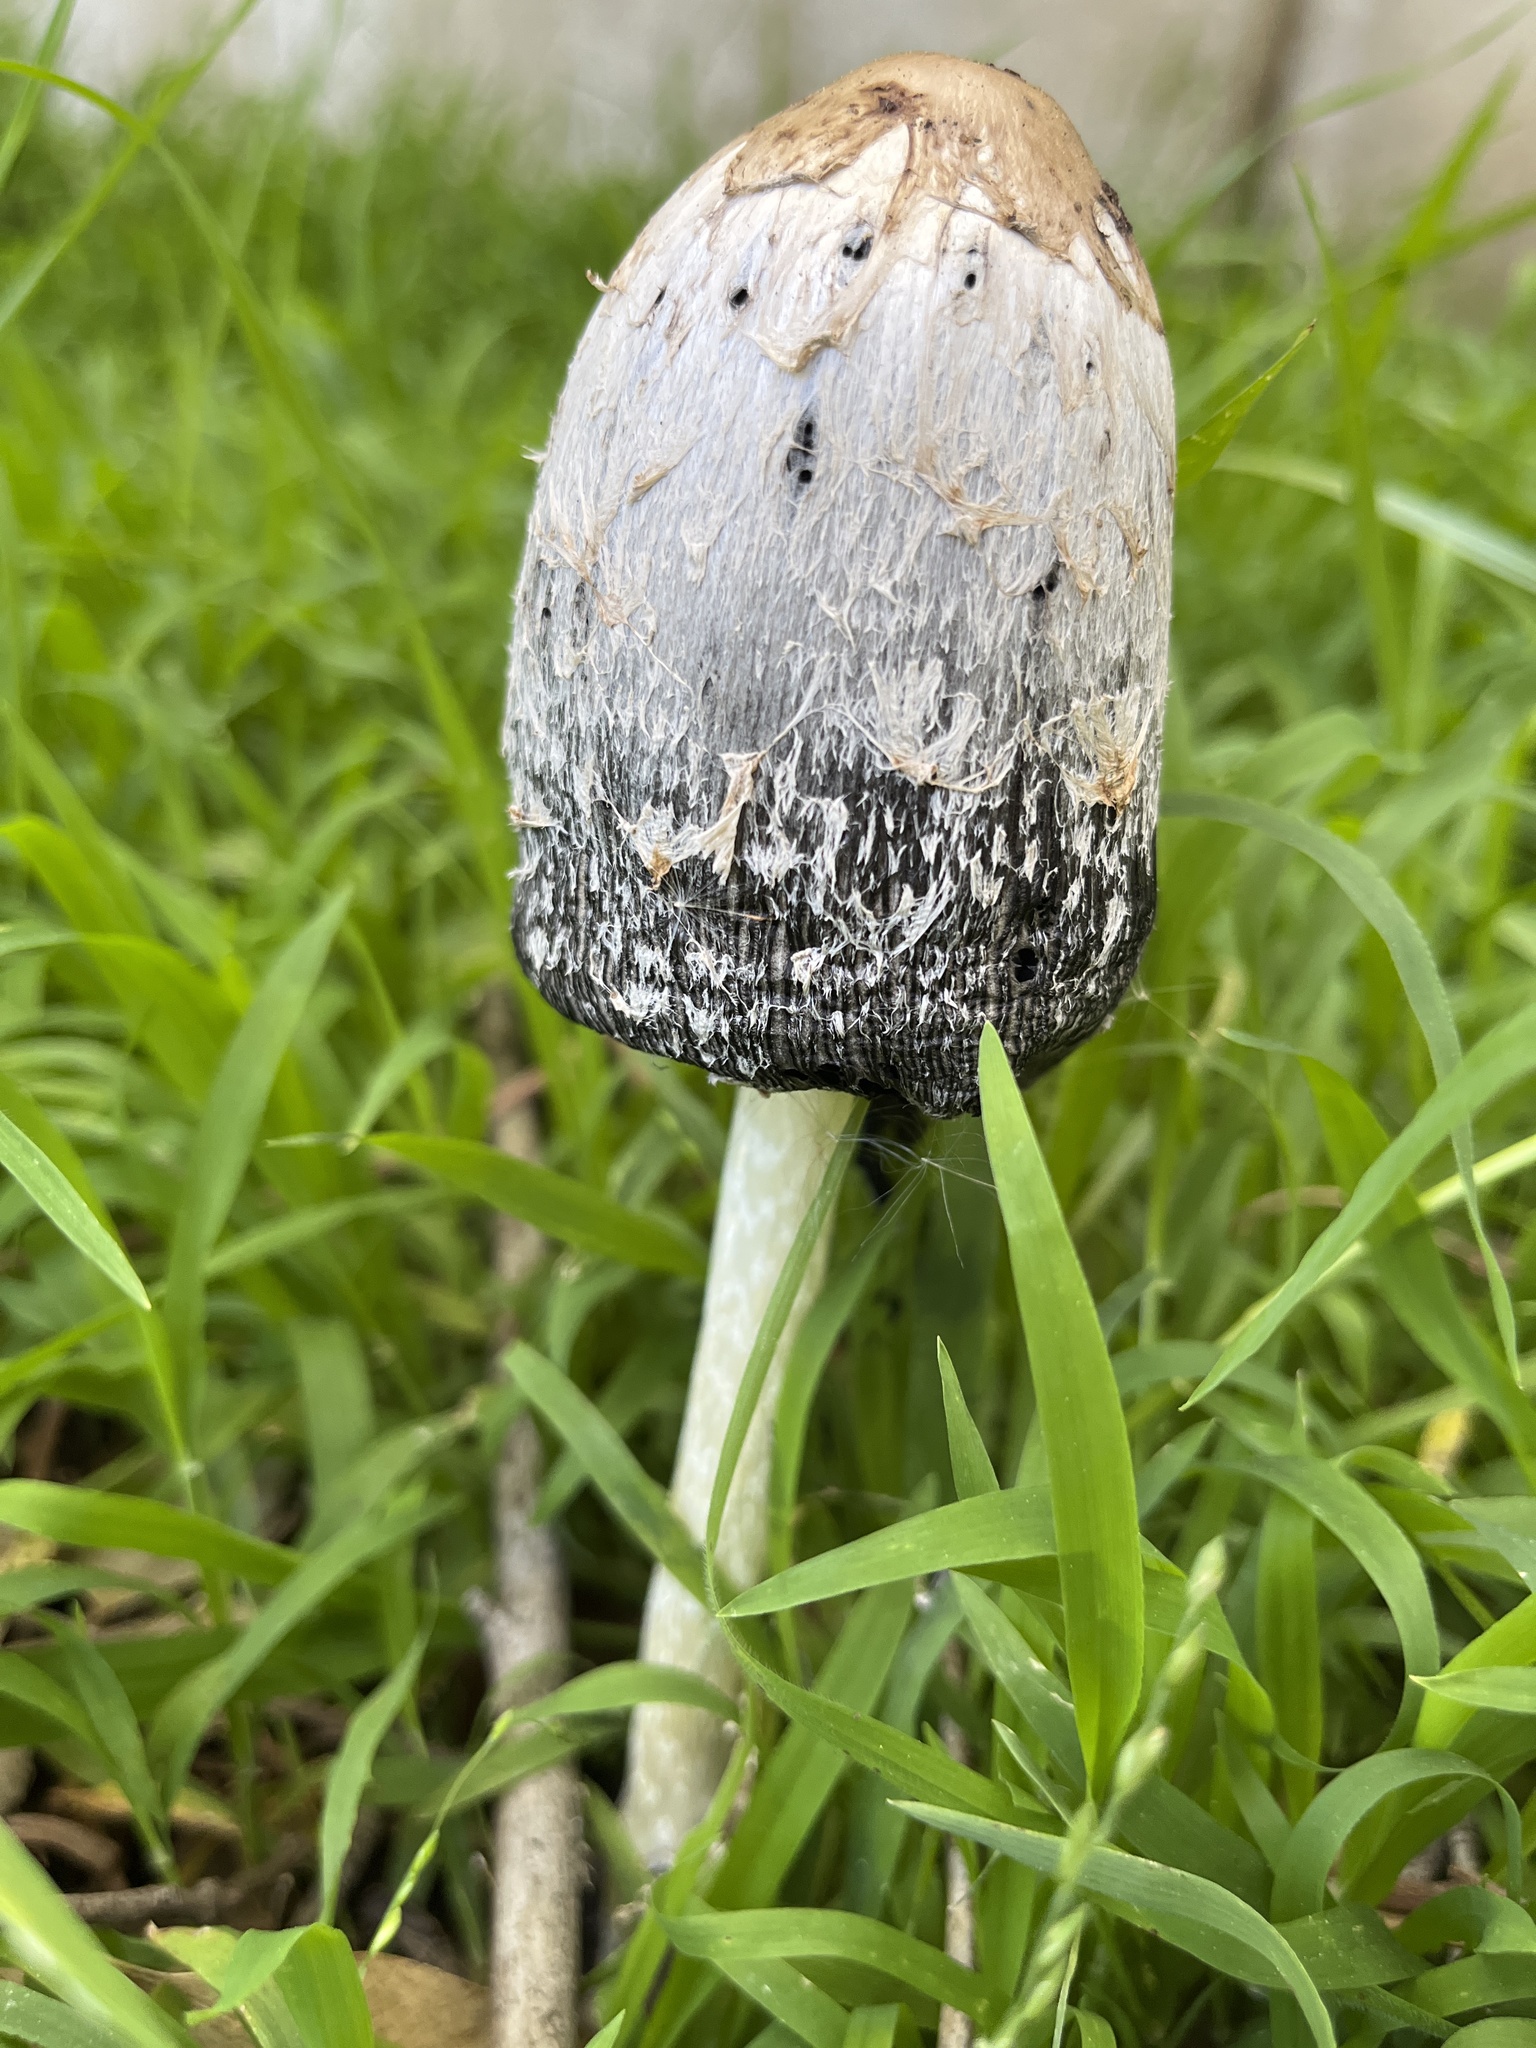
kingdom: Fungi
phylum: Basidiomycota
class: Agaricomycetes
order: Agaricales
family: Agaricaceae
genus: Coprinus
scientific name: Coprinus comatus
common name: Lawyer's wig
